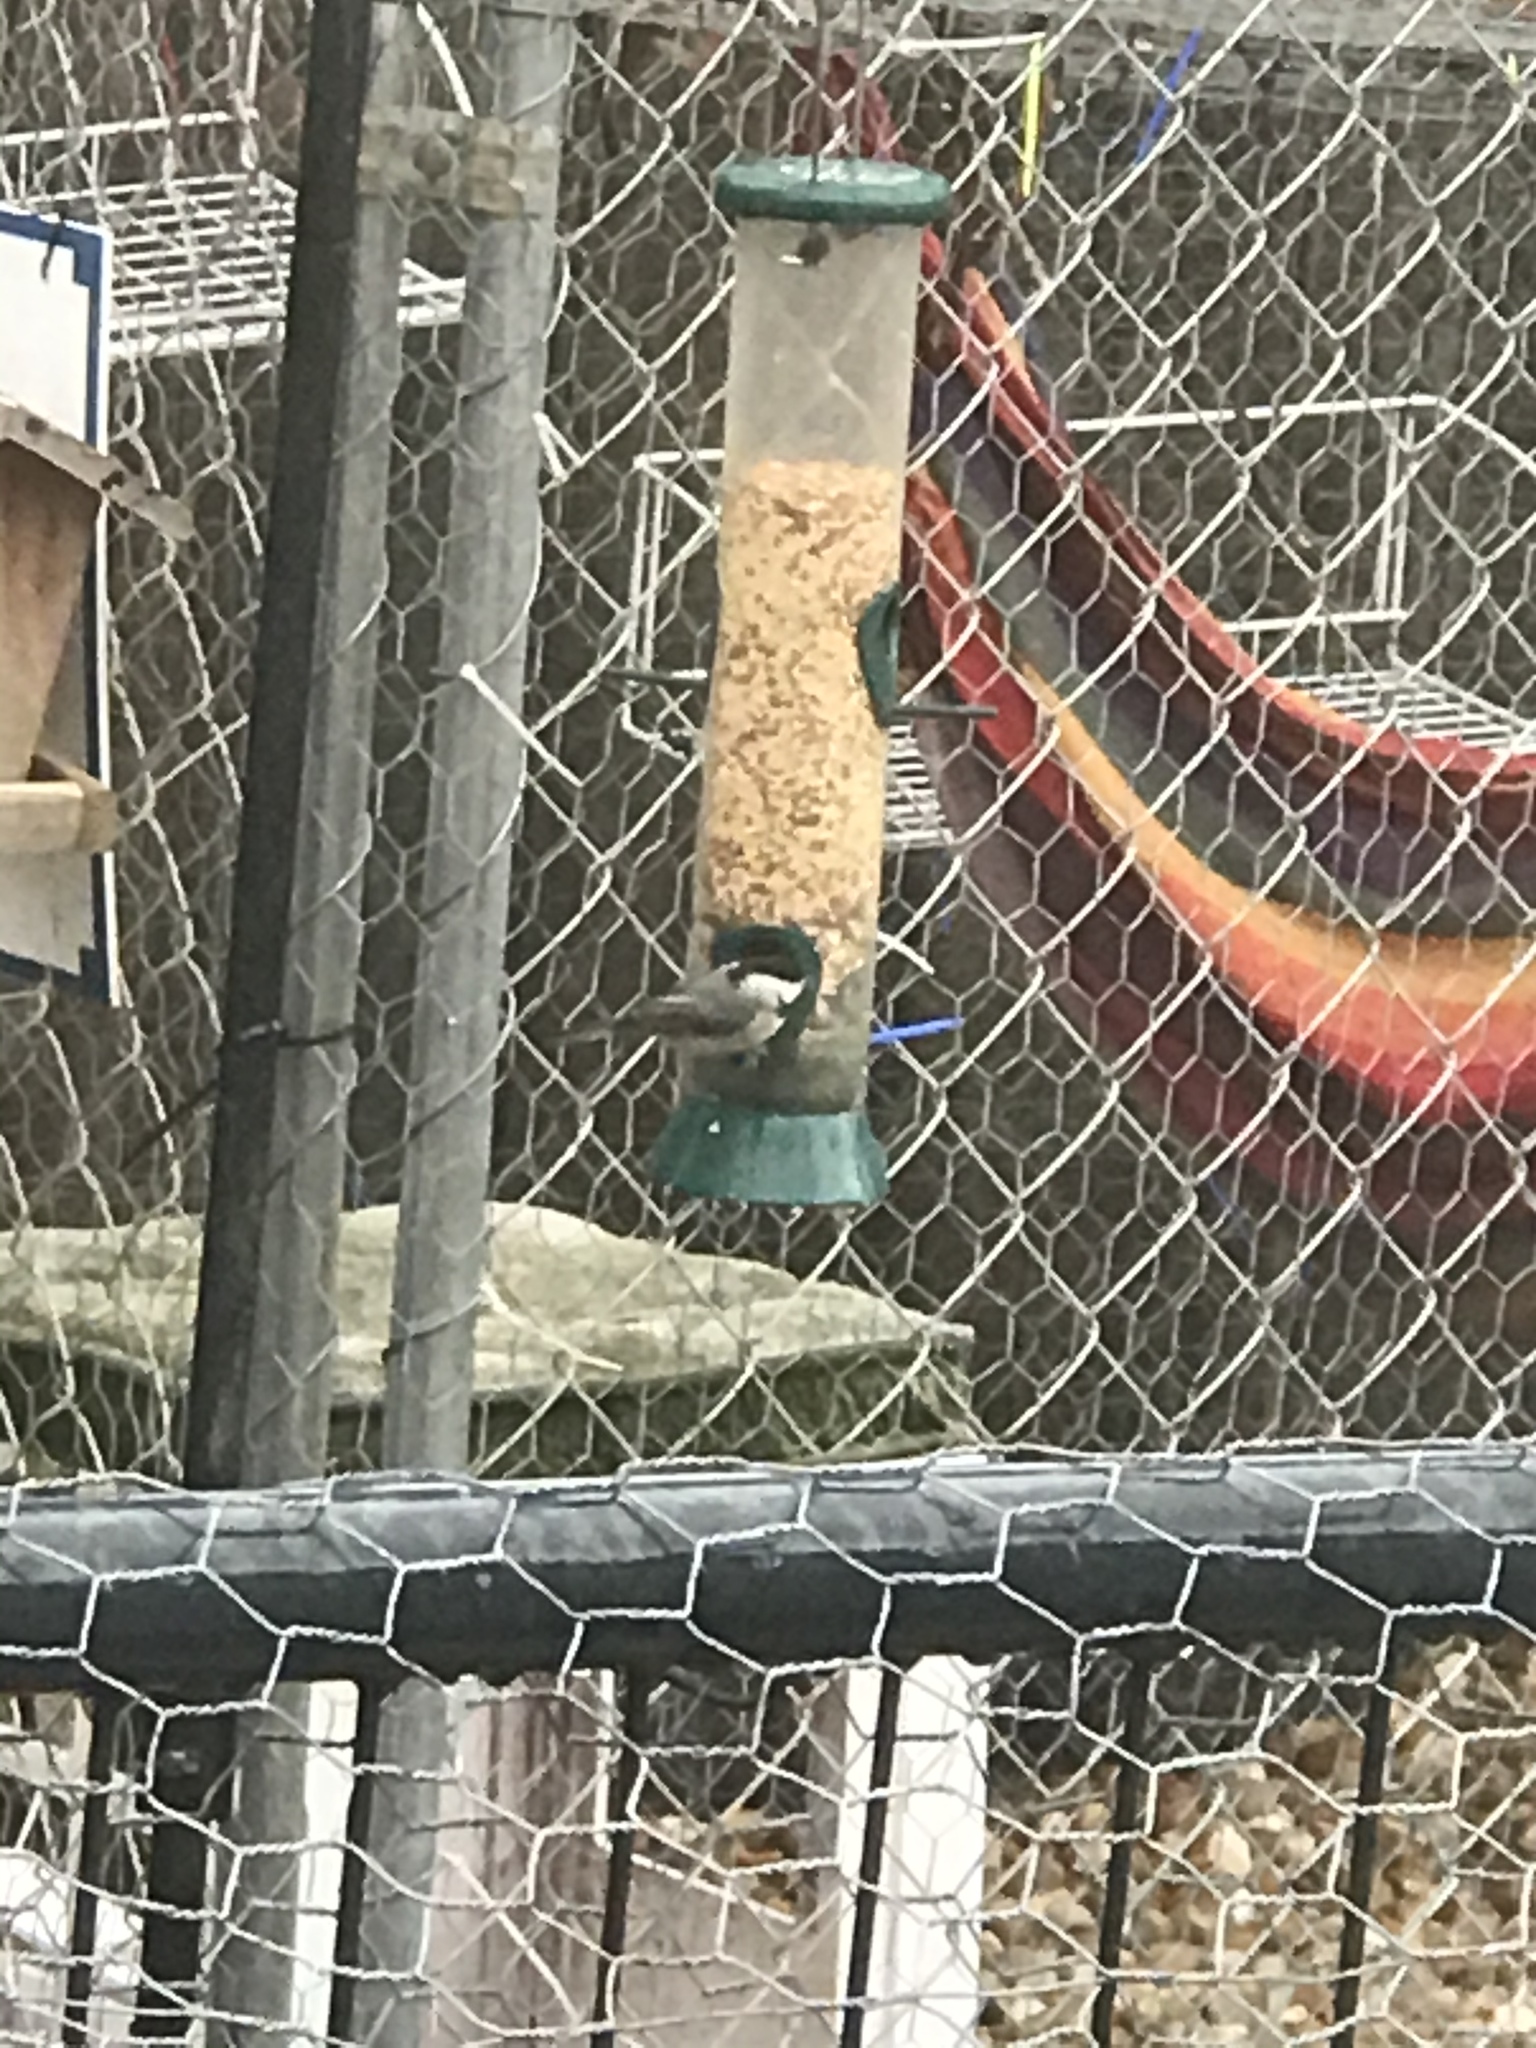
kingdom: Animalia
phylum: Chordata
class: Aves
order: Passeriformes
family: Paridae
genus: Poecile
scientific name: Poecile carolinensis
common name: Carolina chickadee
